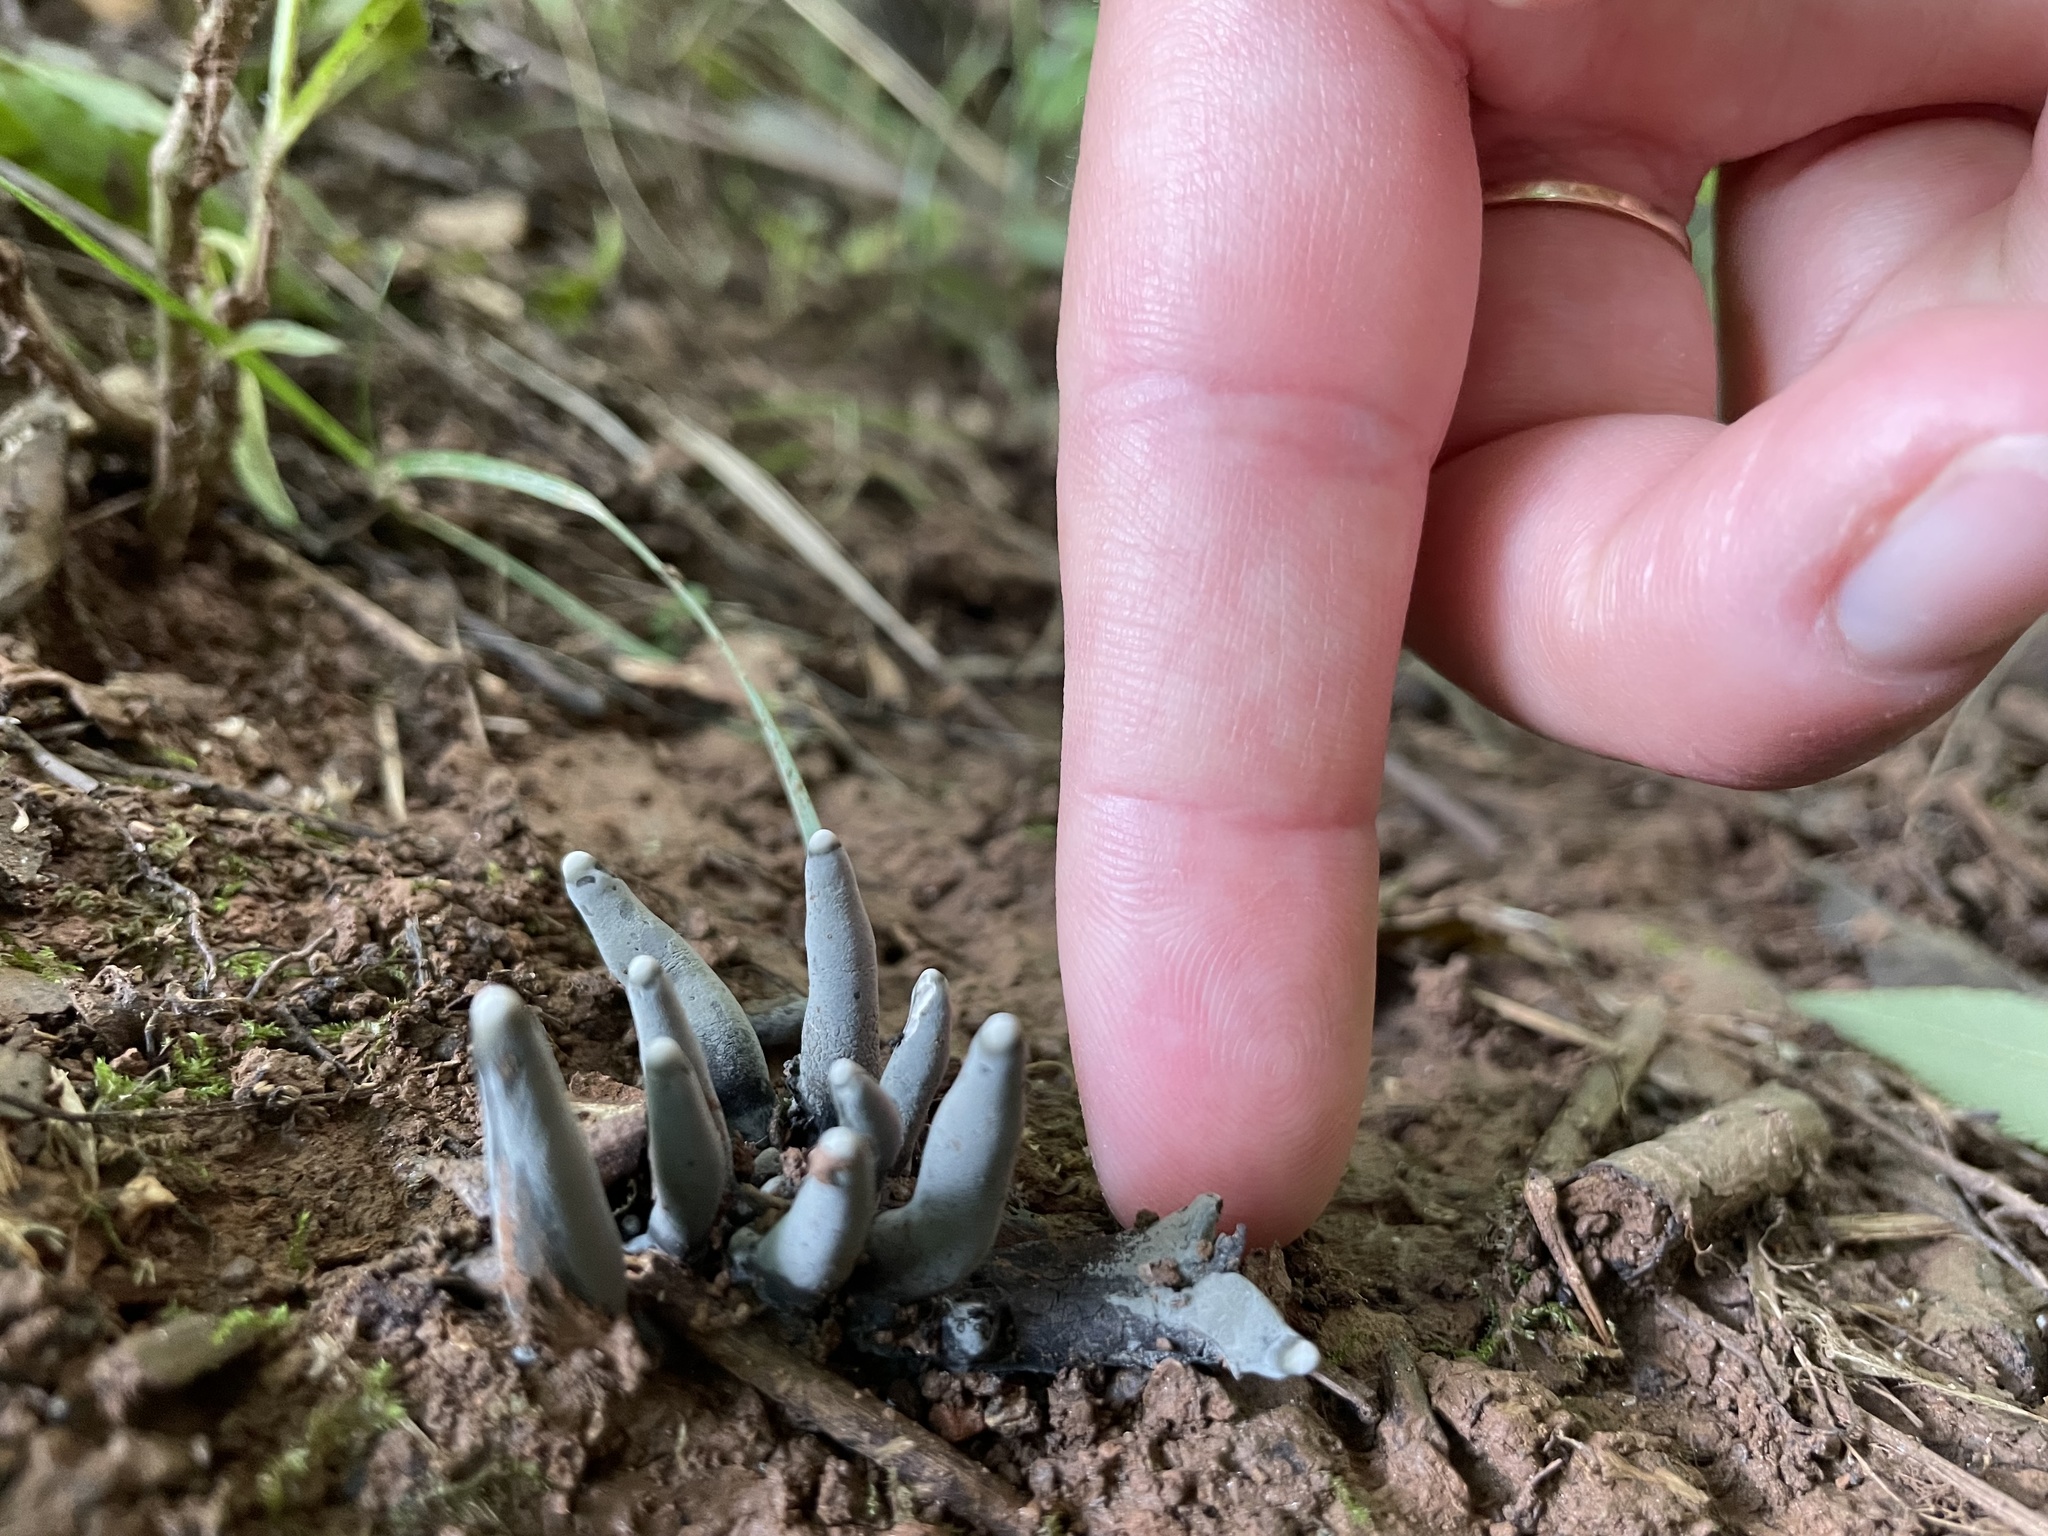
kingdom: Fungi
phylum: Ascomycota
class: Sordariomycetes
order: Xylariales
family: Xylariaceae
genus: Xylaria
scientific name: Xylaria polymorpha
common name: Dead man's fingers
